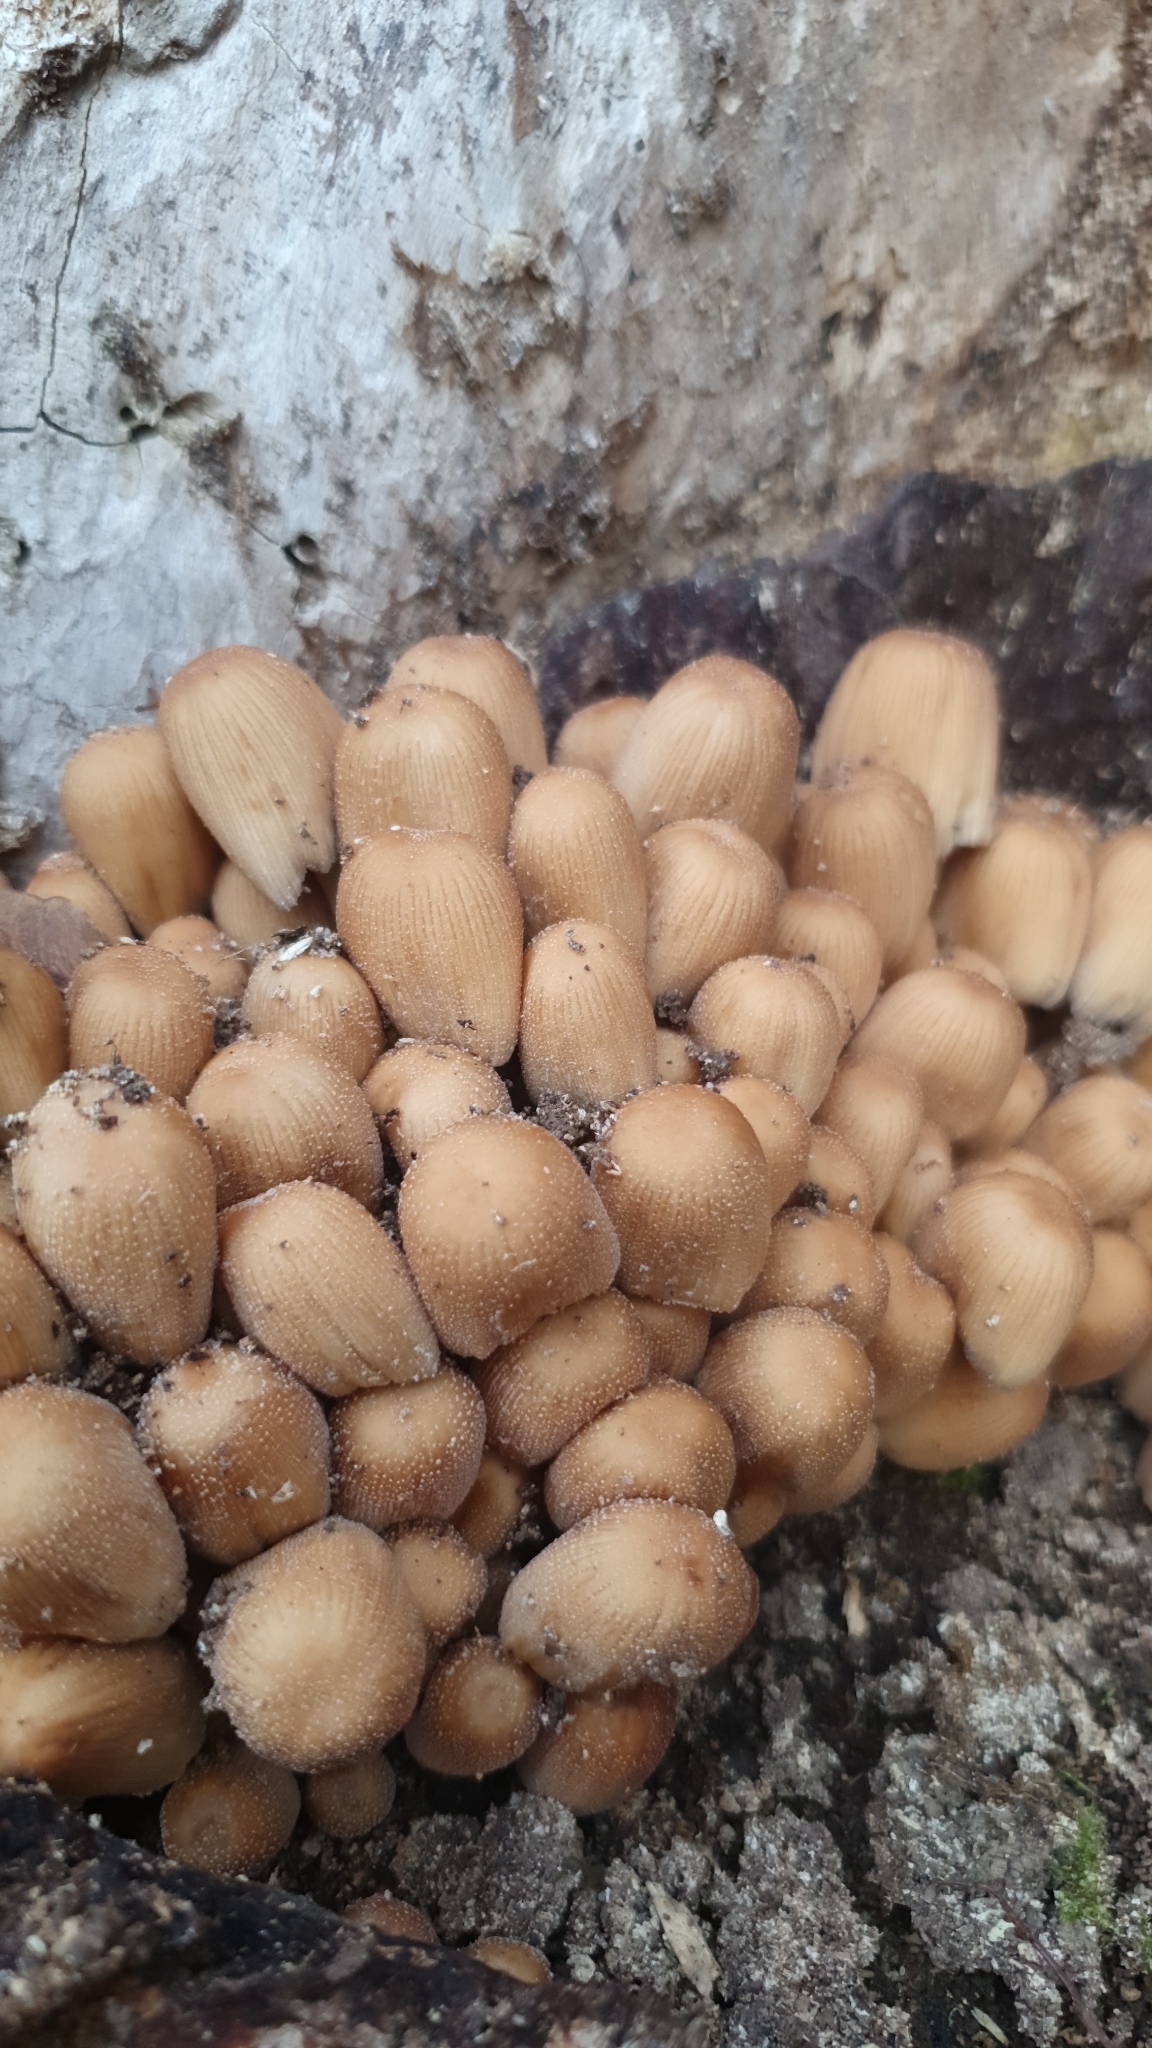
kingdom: Fungi
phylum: Basidiomycota
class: Agaricomycetes
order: Agaricales
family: Psathyrellaceae
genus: Coprinellus
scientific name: Coprinellus micaceus
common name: Glistening ink-cap
